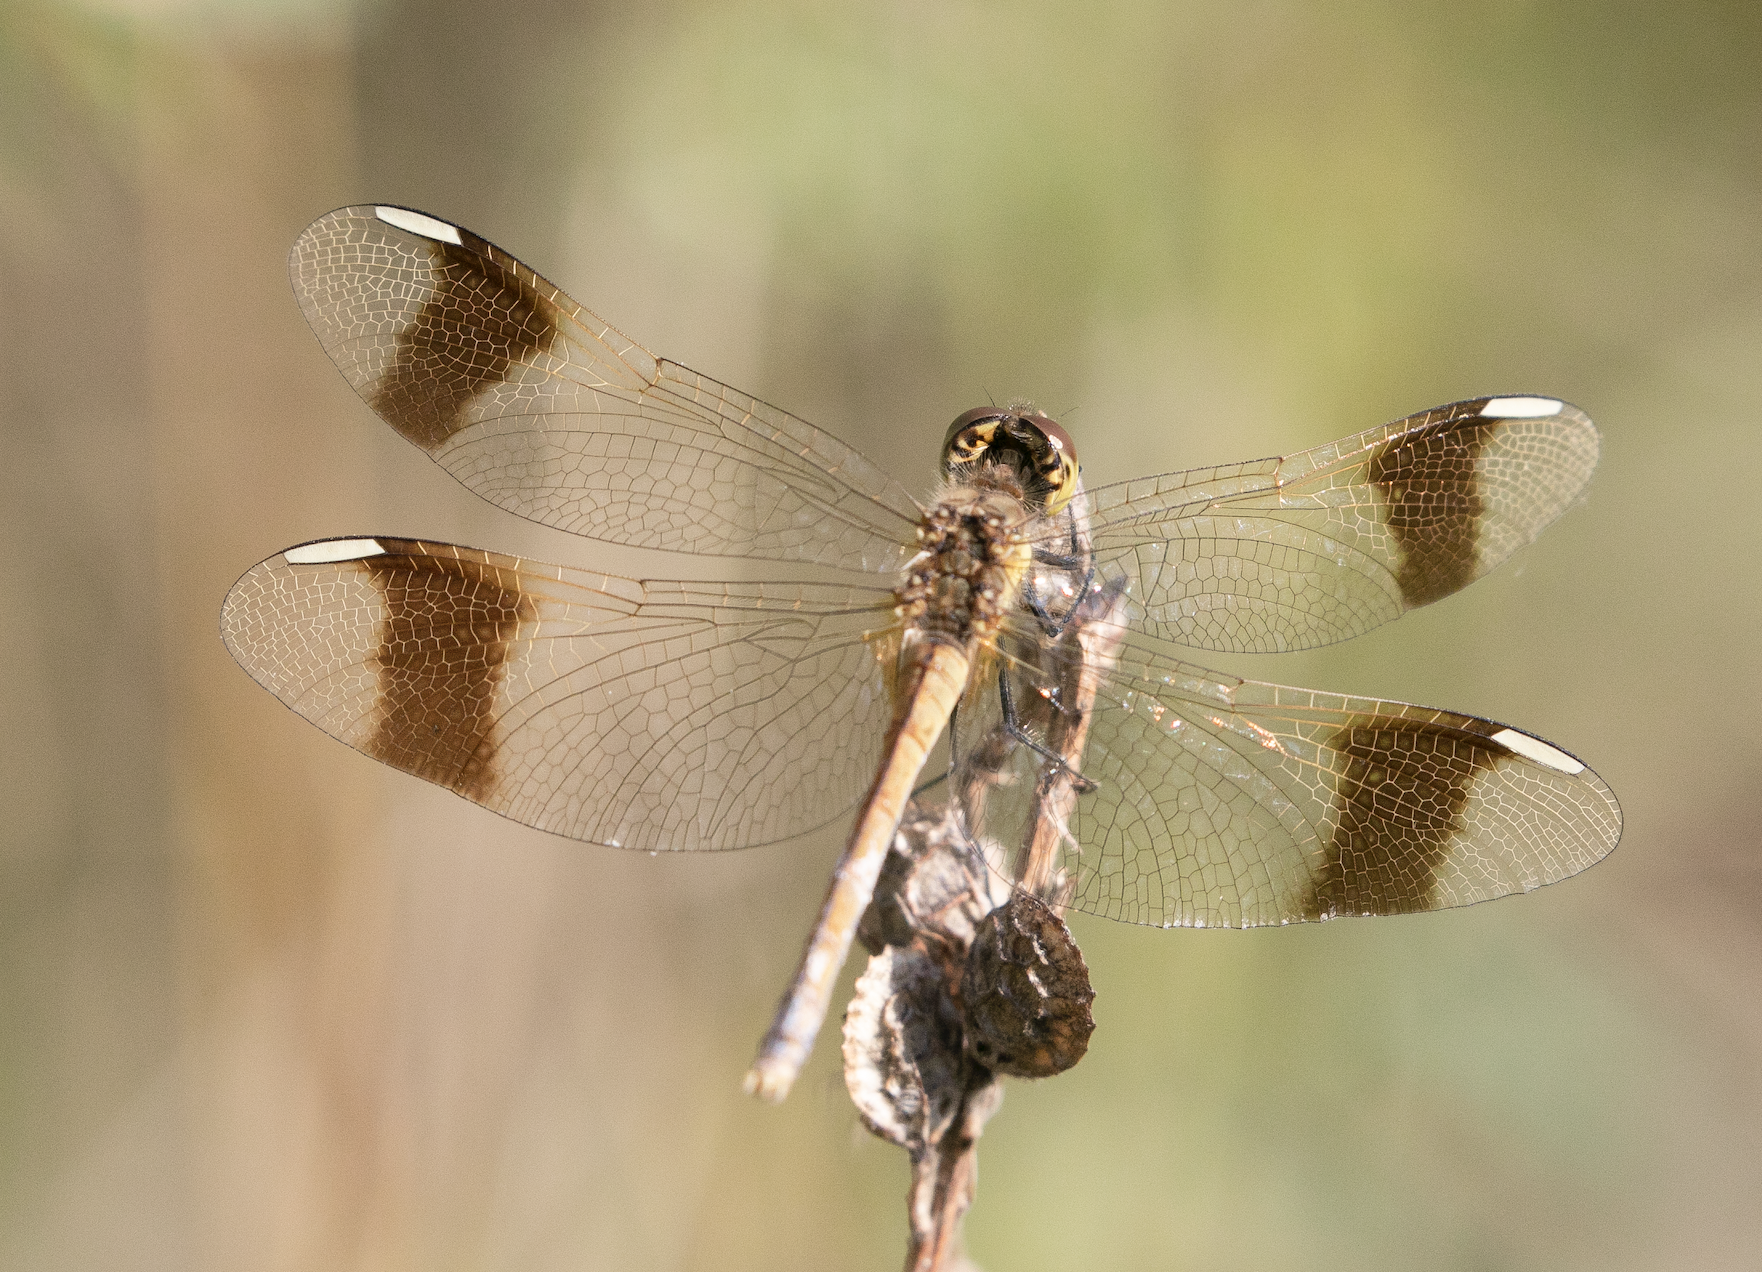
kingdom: Animalia
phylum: Arthropoda
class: Insecta
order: Odonata
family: Libellulidae
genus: Sympetrum
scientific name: Sympetrum pedemontanum
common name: Banded darter
